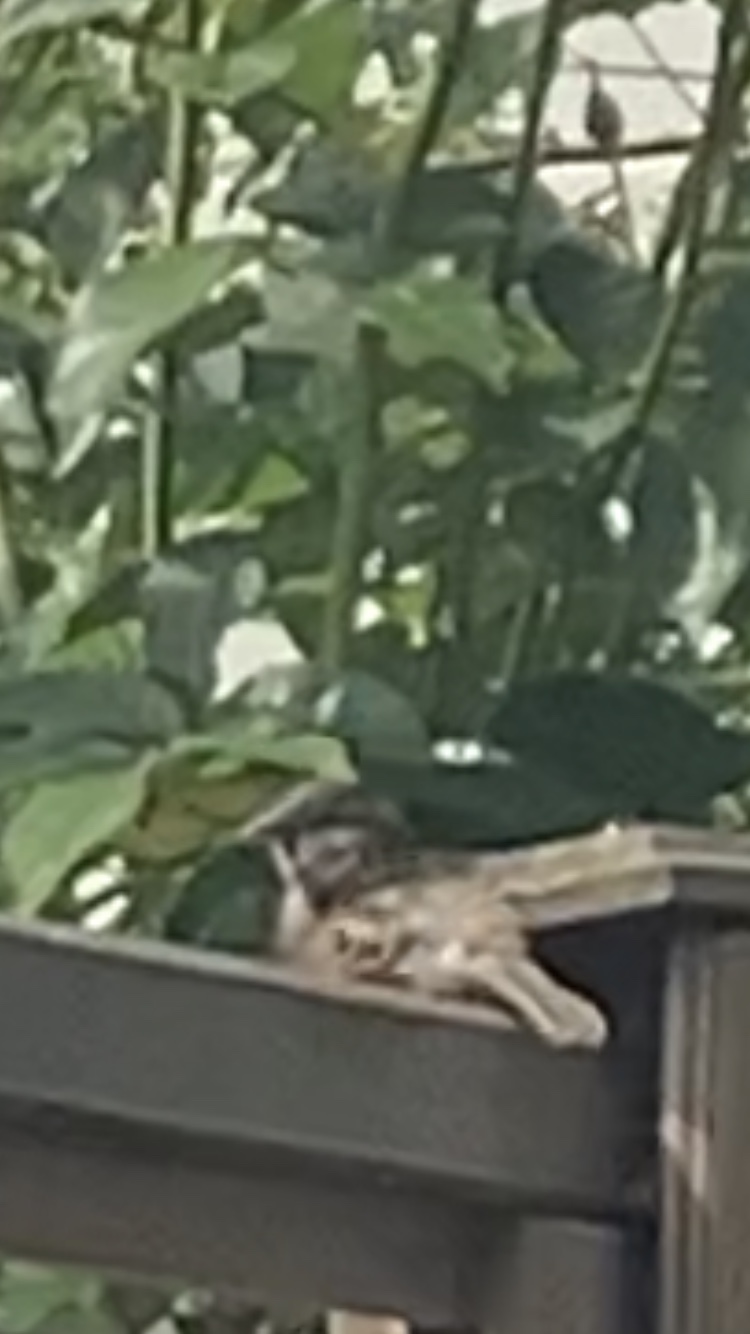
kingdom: Animalia
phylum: Chordata
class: Aves
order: Passeriformes
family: Passeridae
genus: Passer
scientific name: Passer domesticus
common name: House sparrow
